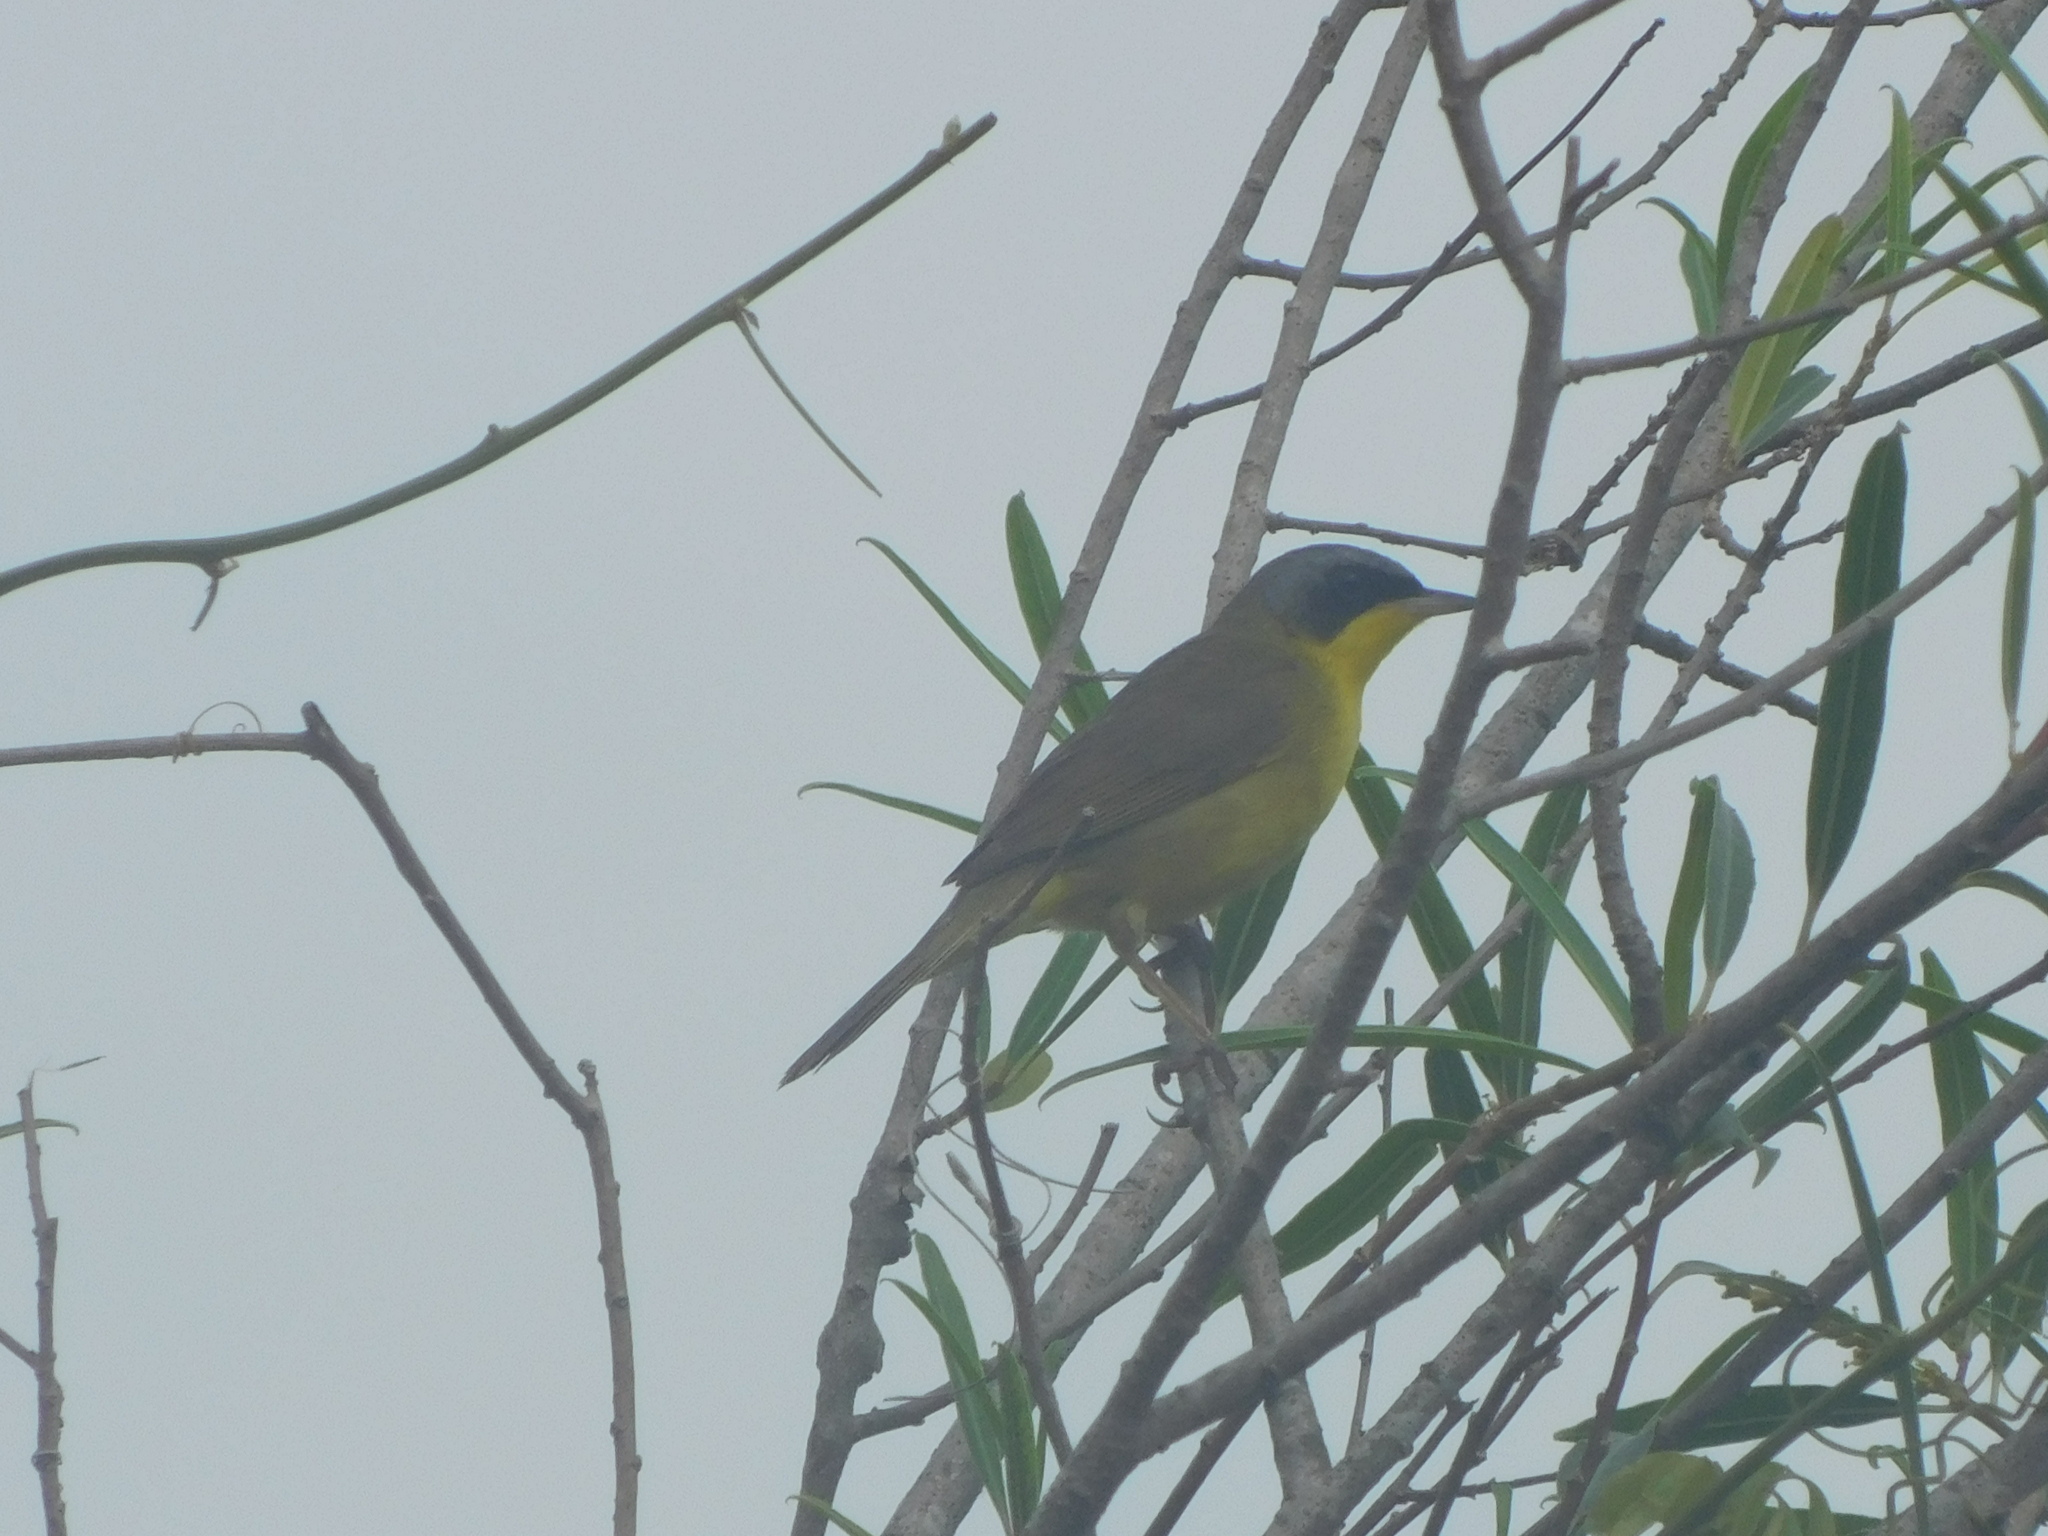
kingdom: Animalia
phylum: Chordata
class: Aves
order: Passeriformes
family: Parulidae
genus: Geothlypis
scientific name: Geothlypis velata
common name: Southern yellowthroat
